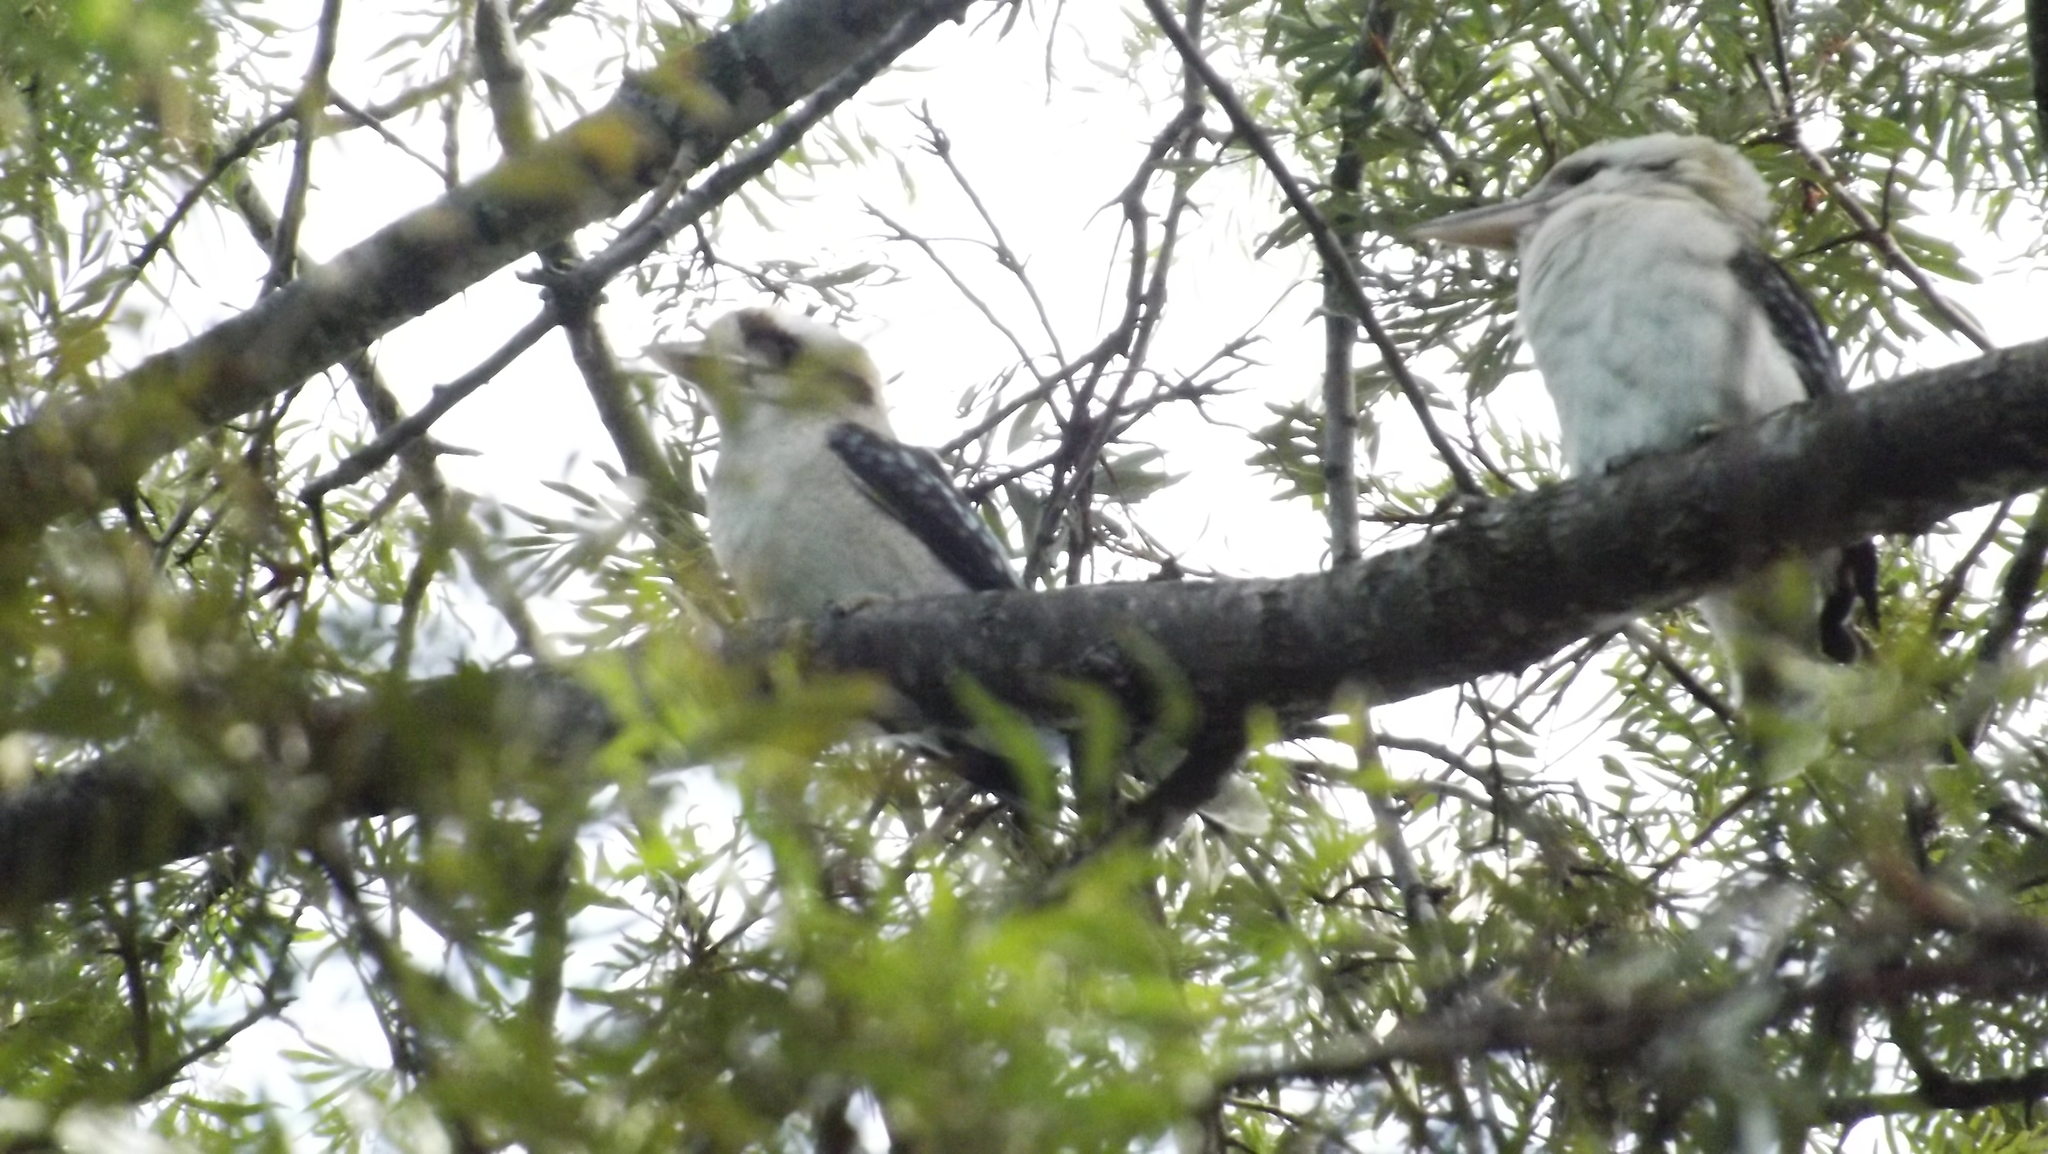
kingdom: Animalia
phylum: Chordata
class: Aves
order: Coraciiformes
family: Alcedinidae
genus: Dacelo
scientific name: Dacelo novaeguineae
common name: Laughing kookaburra
